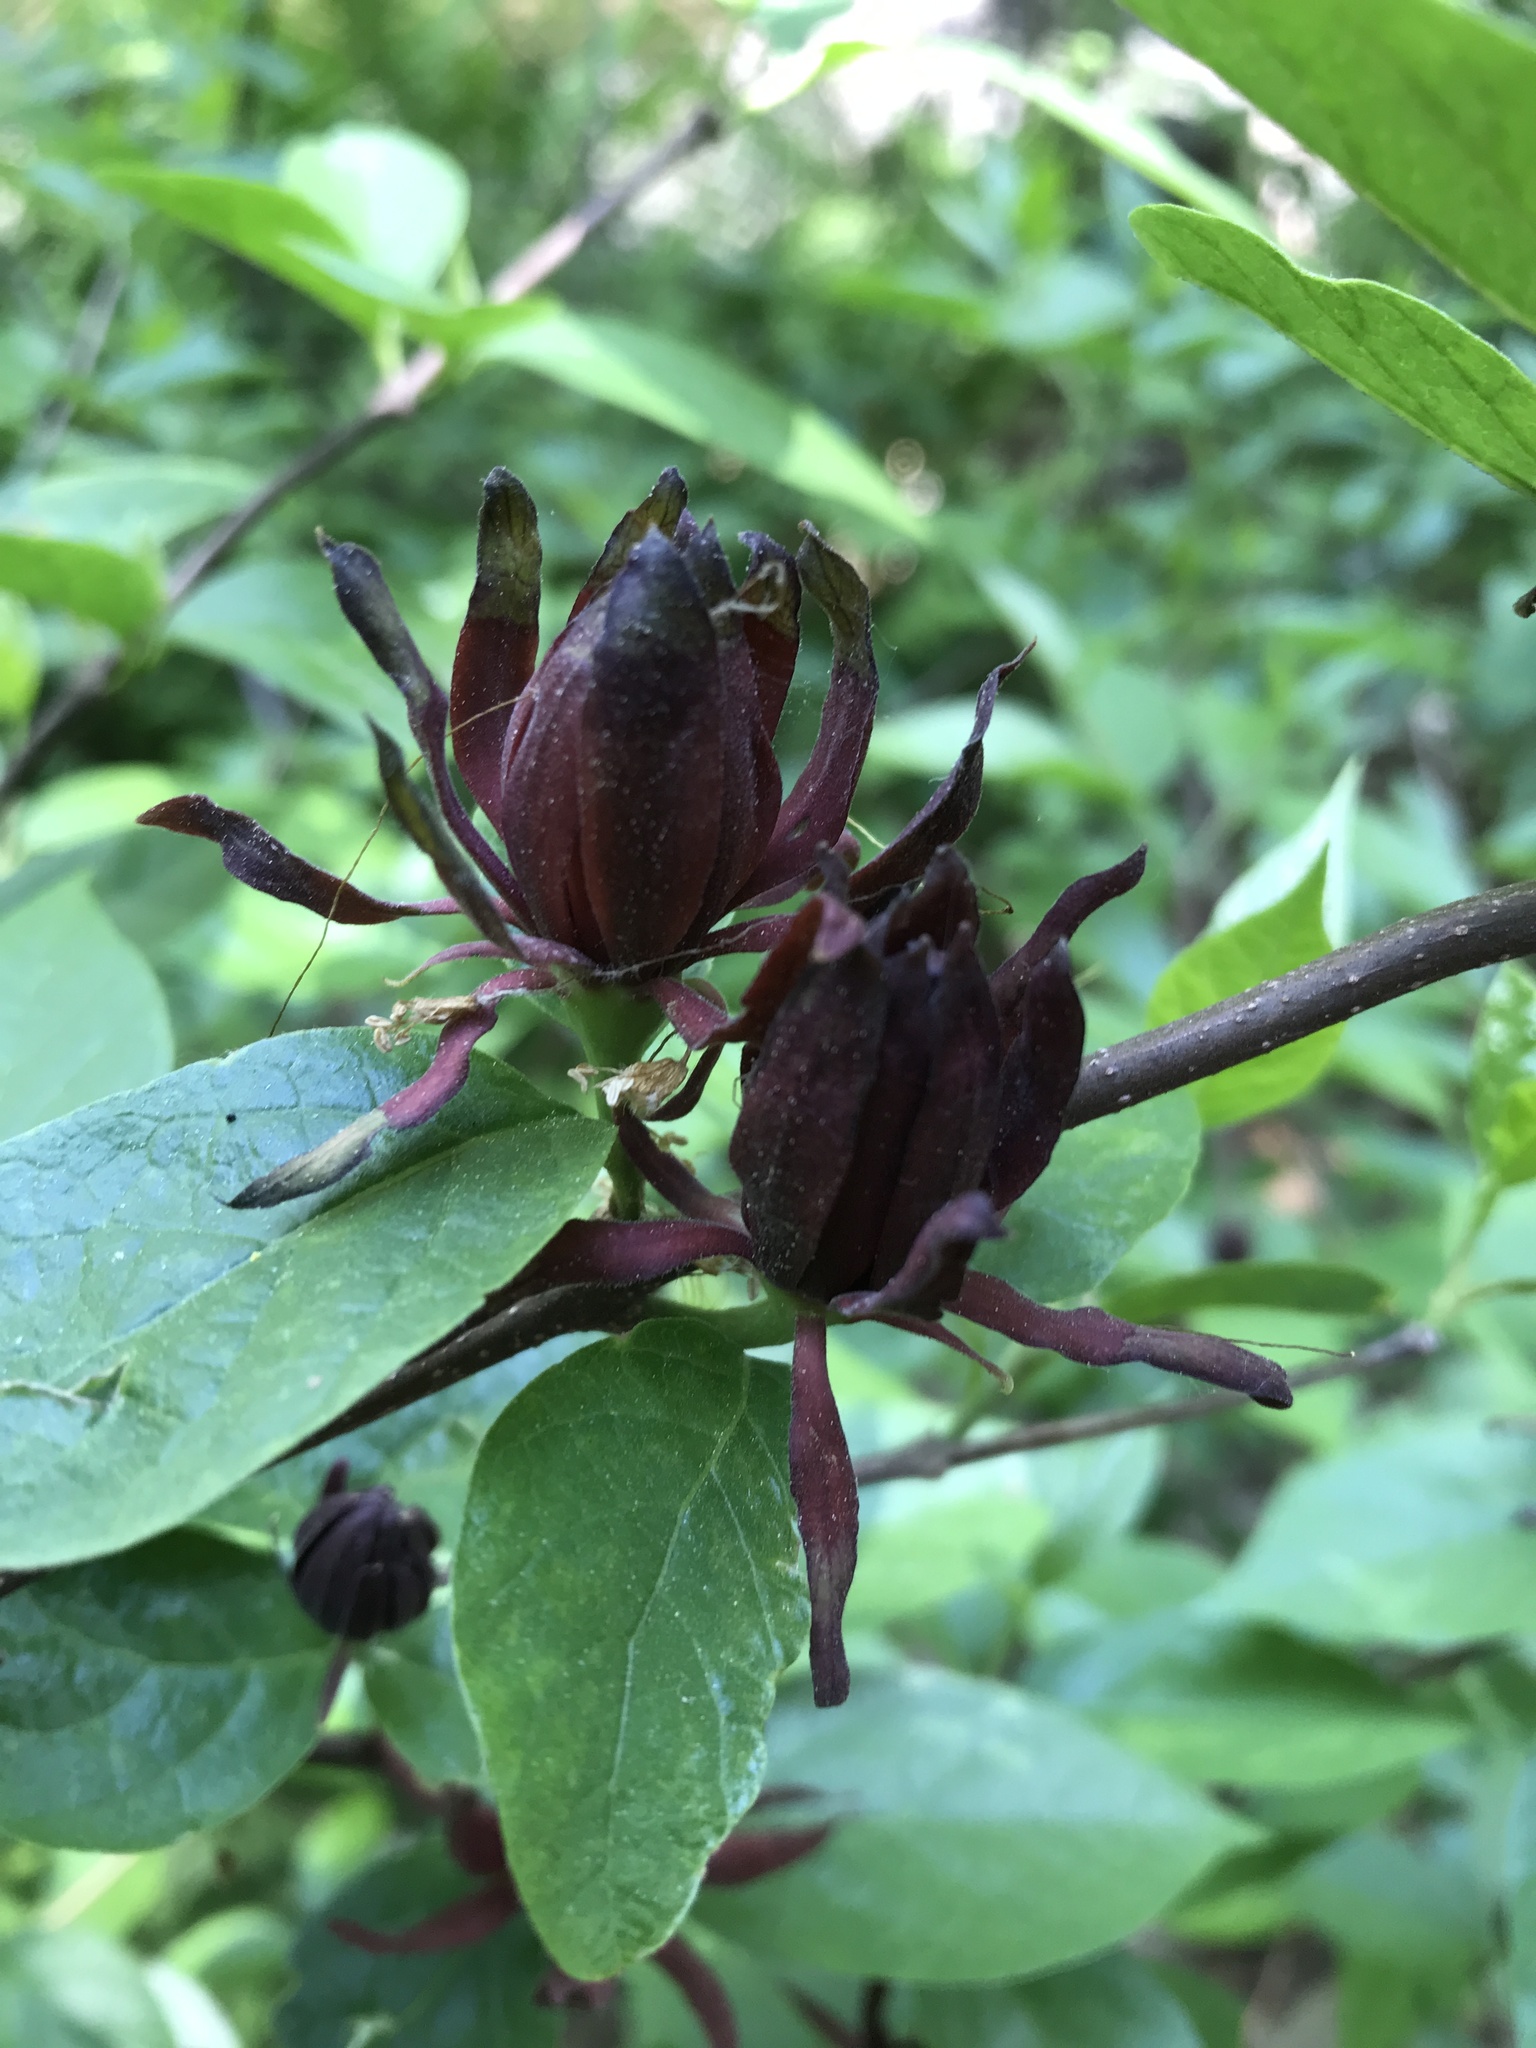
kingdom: Plantae
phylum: Tracheophyta
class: Magnoliopsida
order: Laurales
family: Calycanthaceae
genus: Calycanthus
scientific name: Calycanthus floridus
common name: Carolina-allspice
